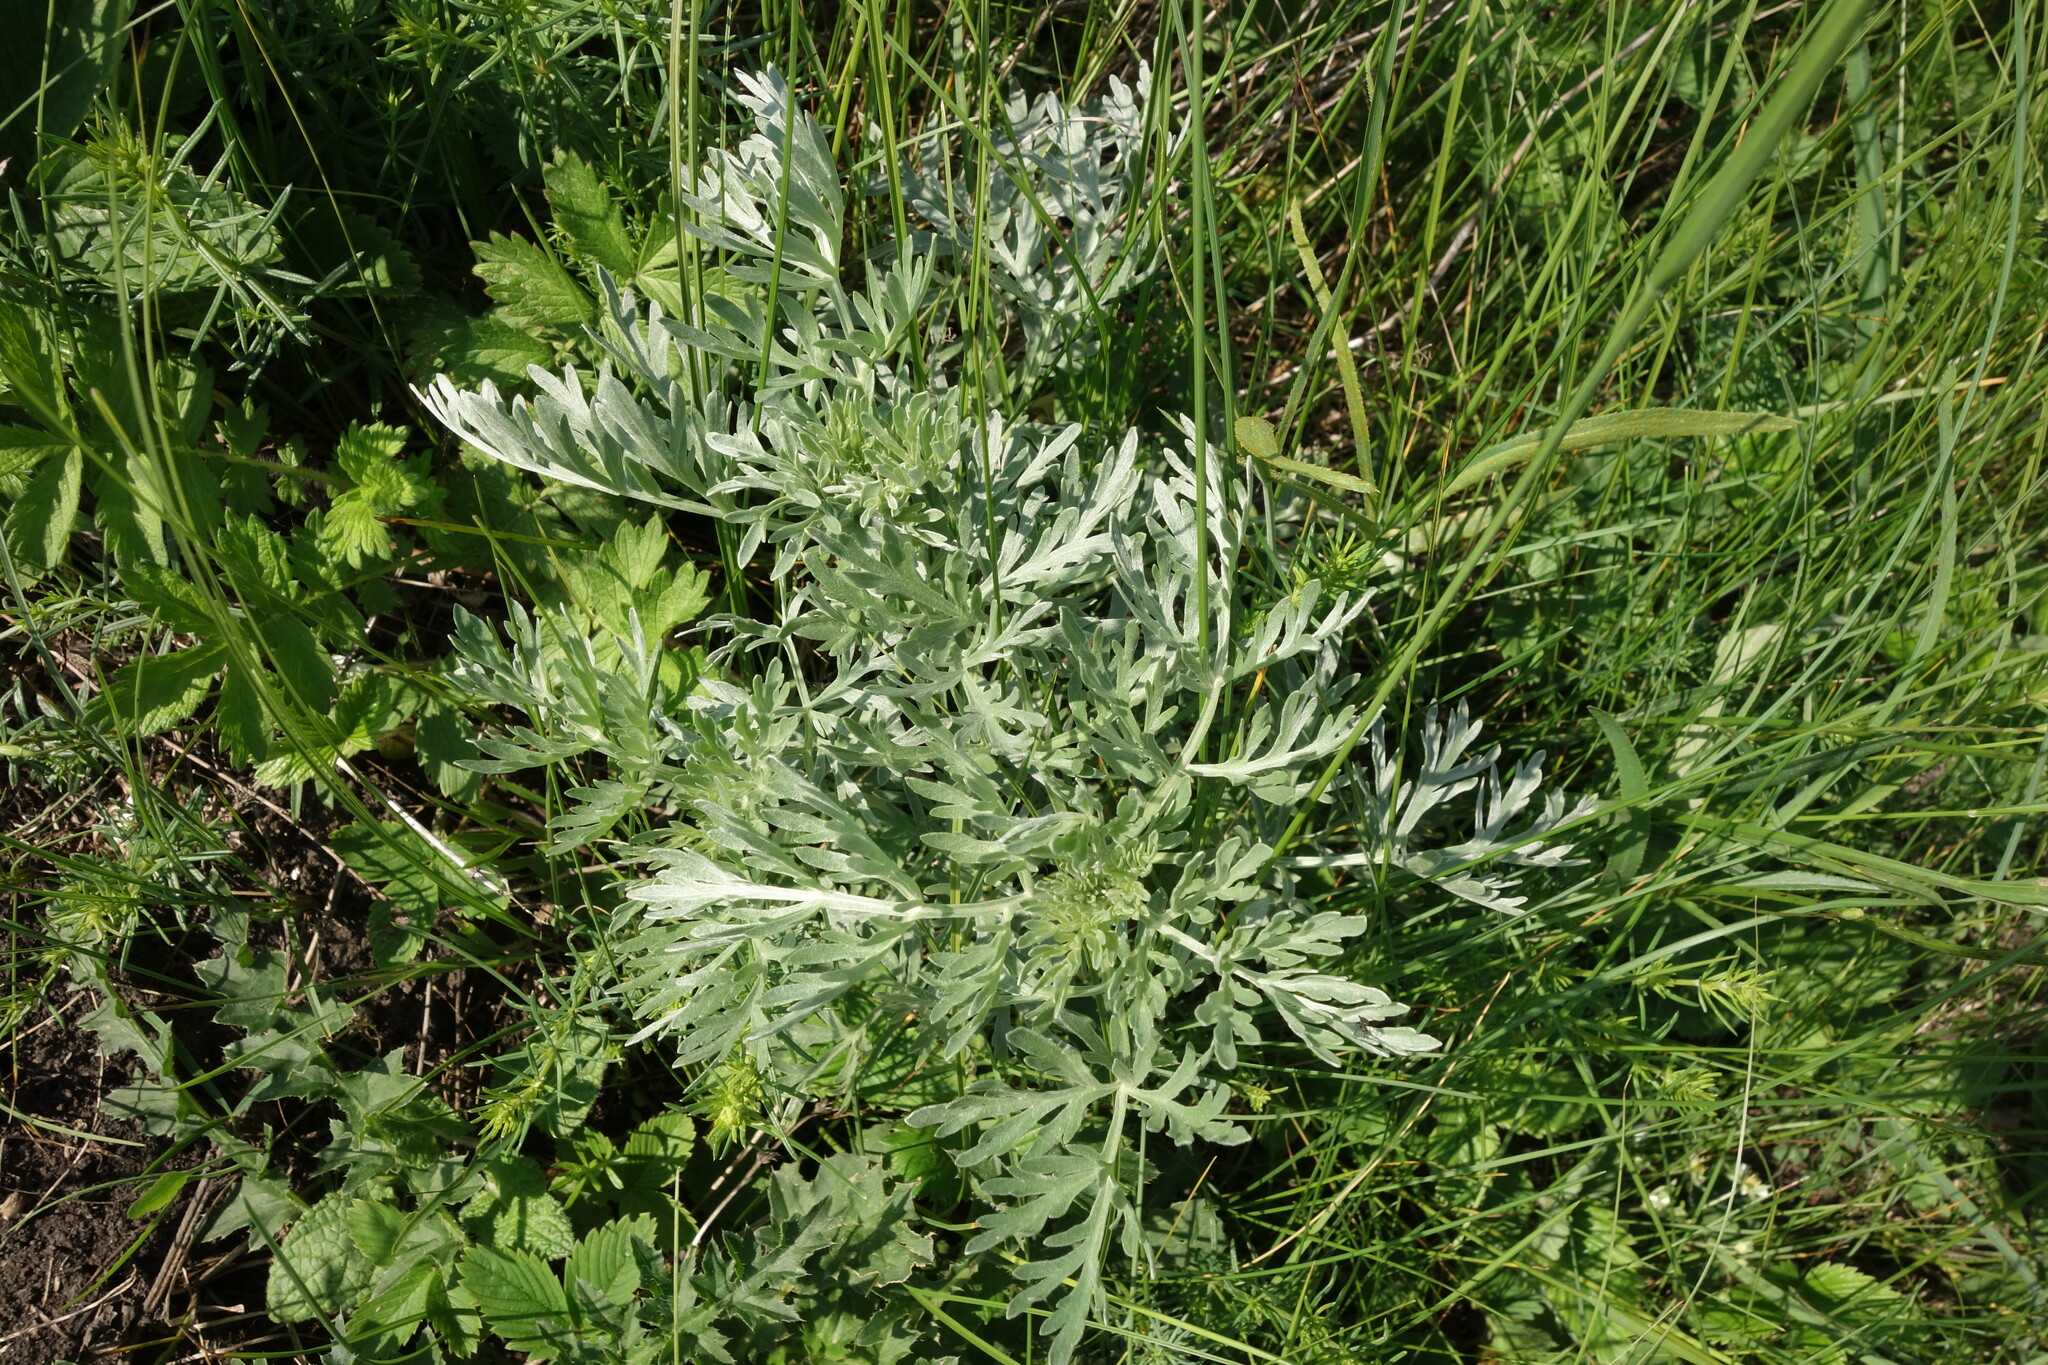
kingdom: Plantae
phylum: Tracheophyta
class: Magnoliopsida
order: Asterales
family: Asteraceae
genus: Artemisia
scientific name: Artemisia absinthium
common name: Wormwood
